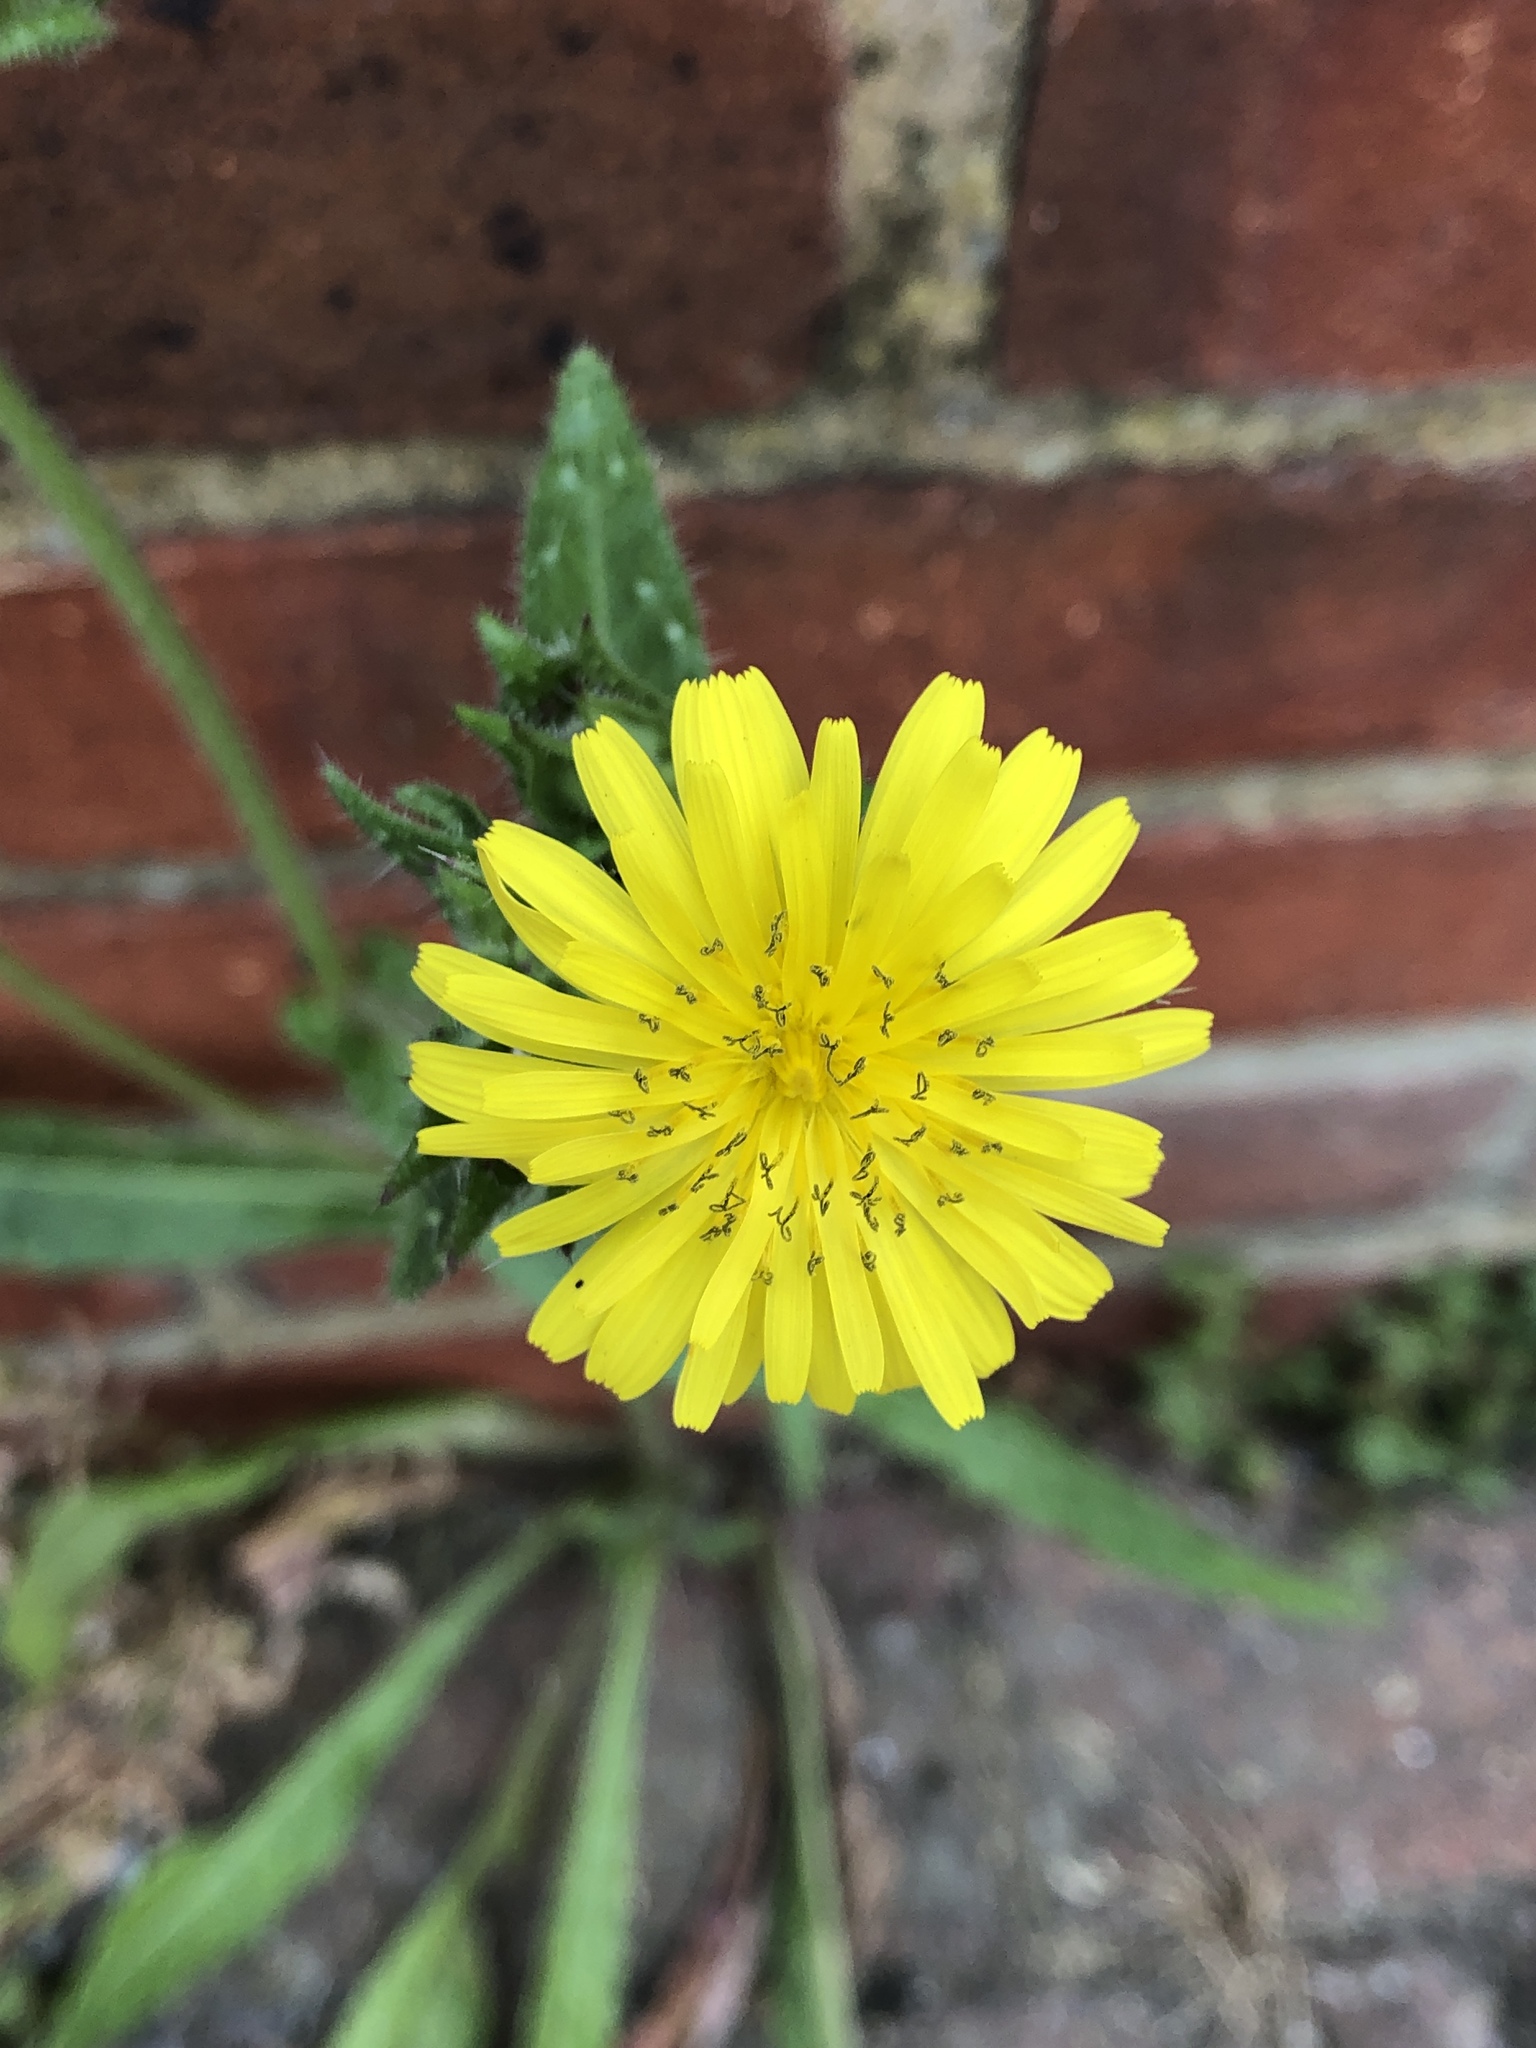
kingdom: Plantae
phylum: Tracheophyta
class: Magnoliopsida
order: Asterales
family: Asteraceae
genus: Helminthotheca
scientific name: Helminthotheca echioides
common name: Ox-tongue
